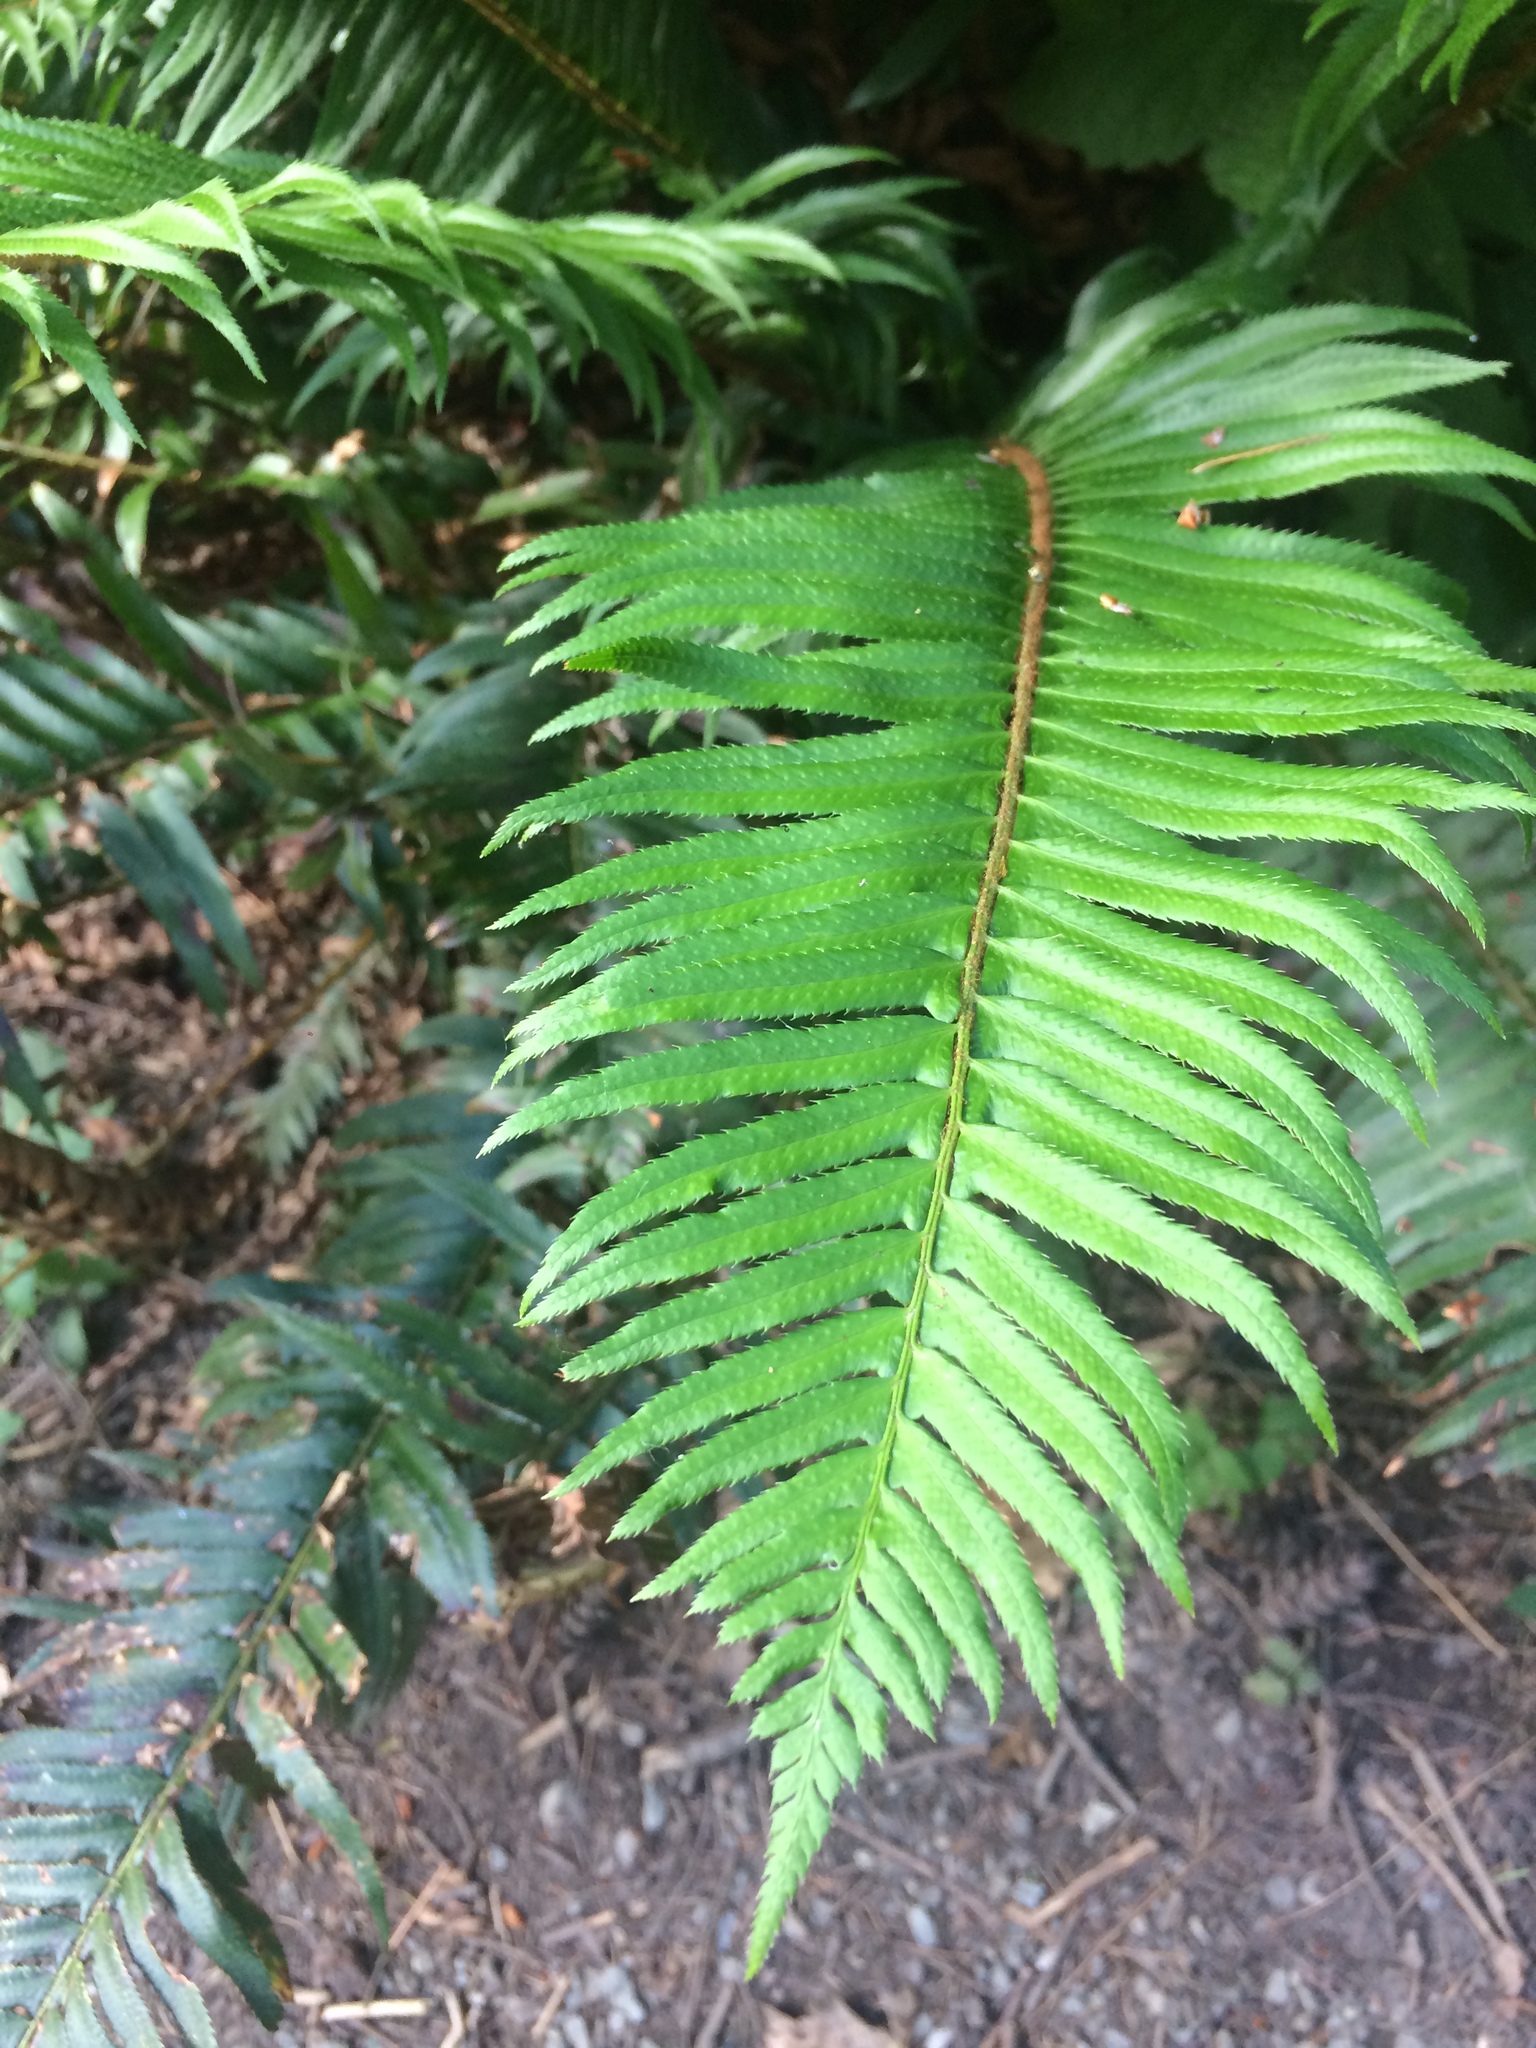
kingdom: Plantae
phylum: Tracheophyta
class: Polypodiopsida
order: Polypodiales
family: Dryopteridaceae
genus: Polystichum
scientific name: Polystichum munitum
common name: Western sword-fern
